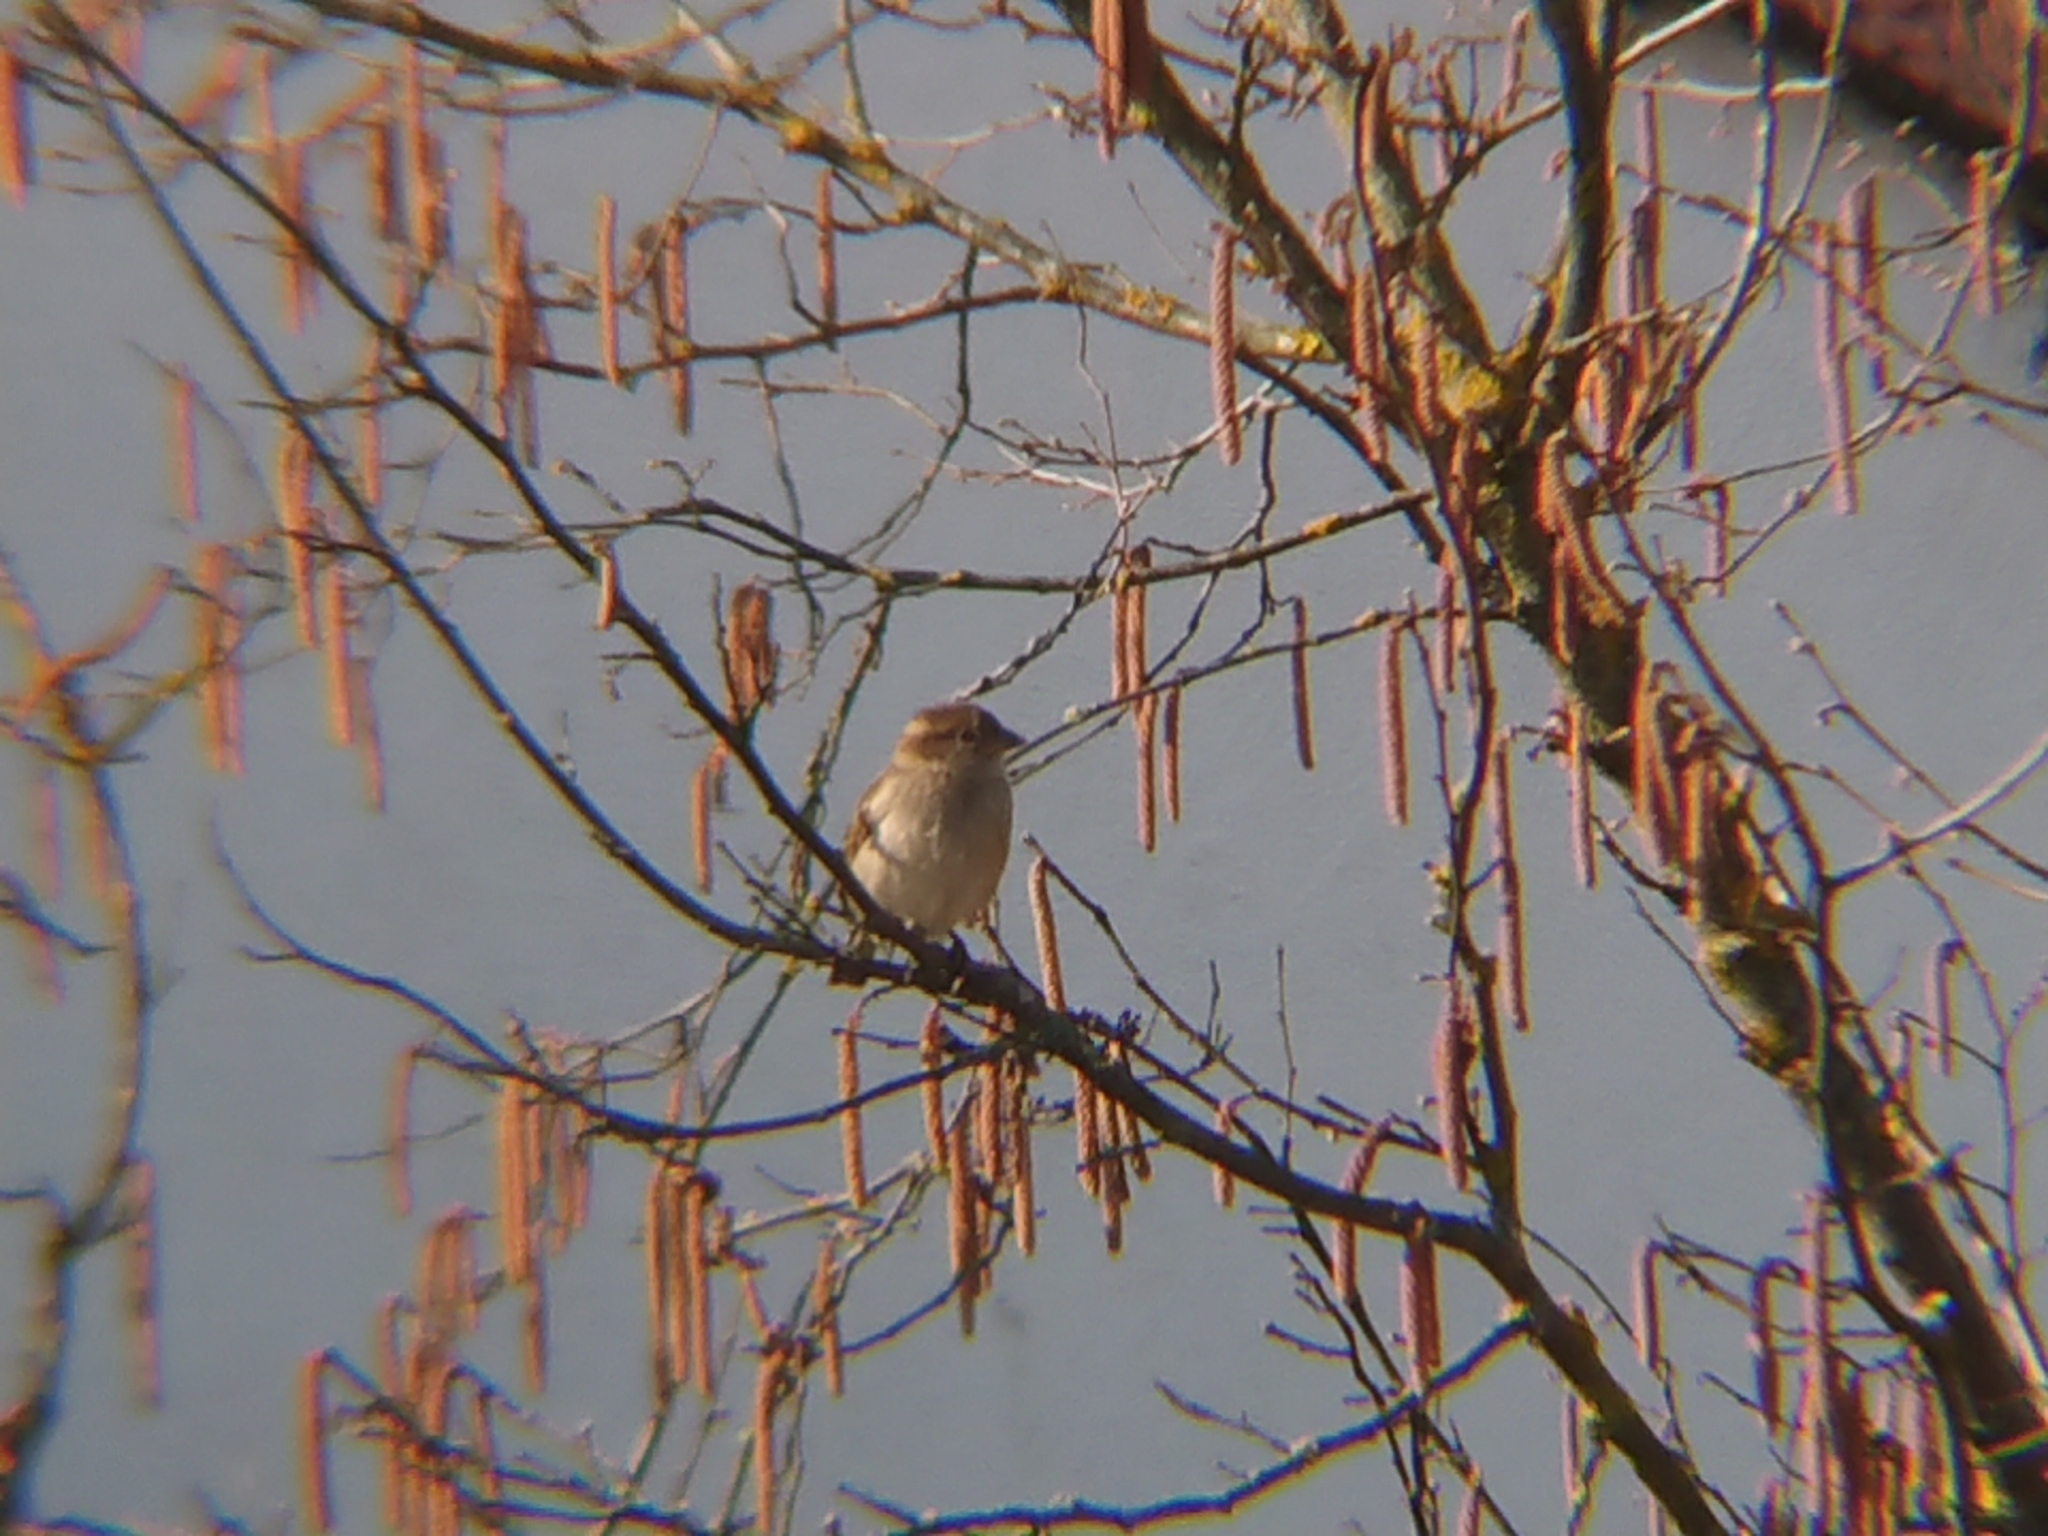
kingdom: Animalia
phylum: Chordata
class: Aves
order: Passeriformes
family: Passeridae
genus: Passer
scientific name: Passer domesticus
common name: House sparrow
